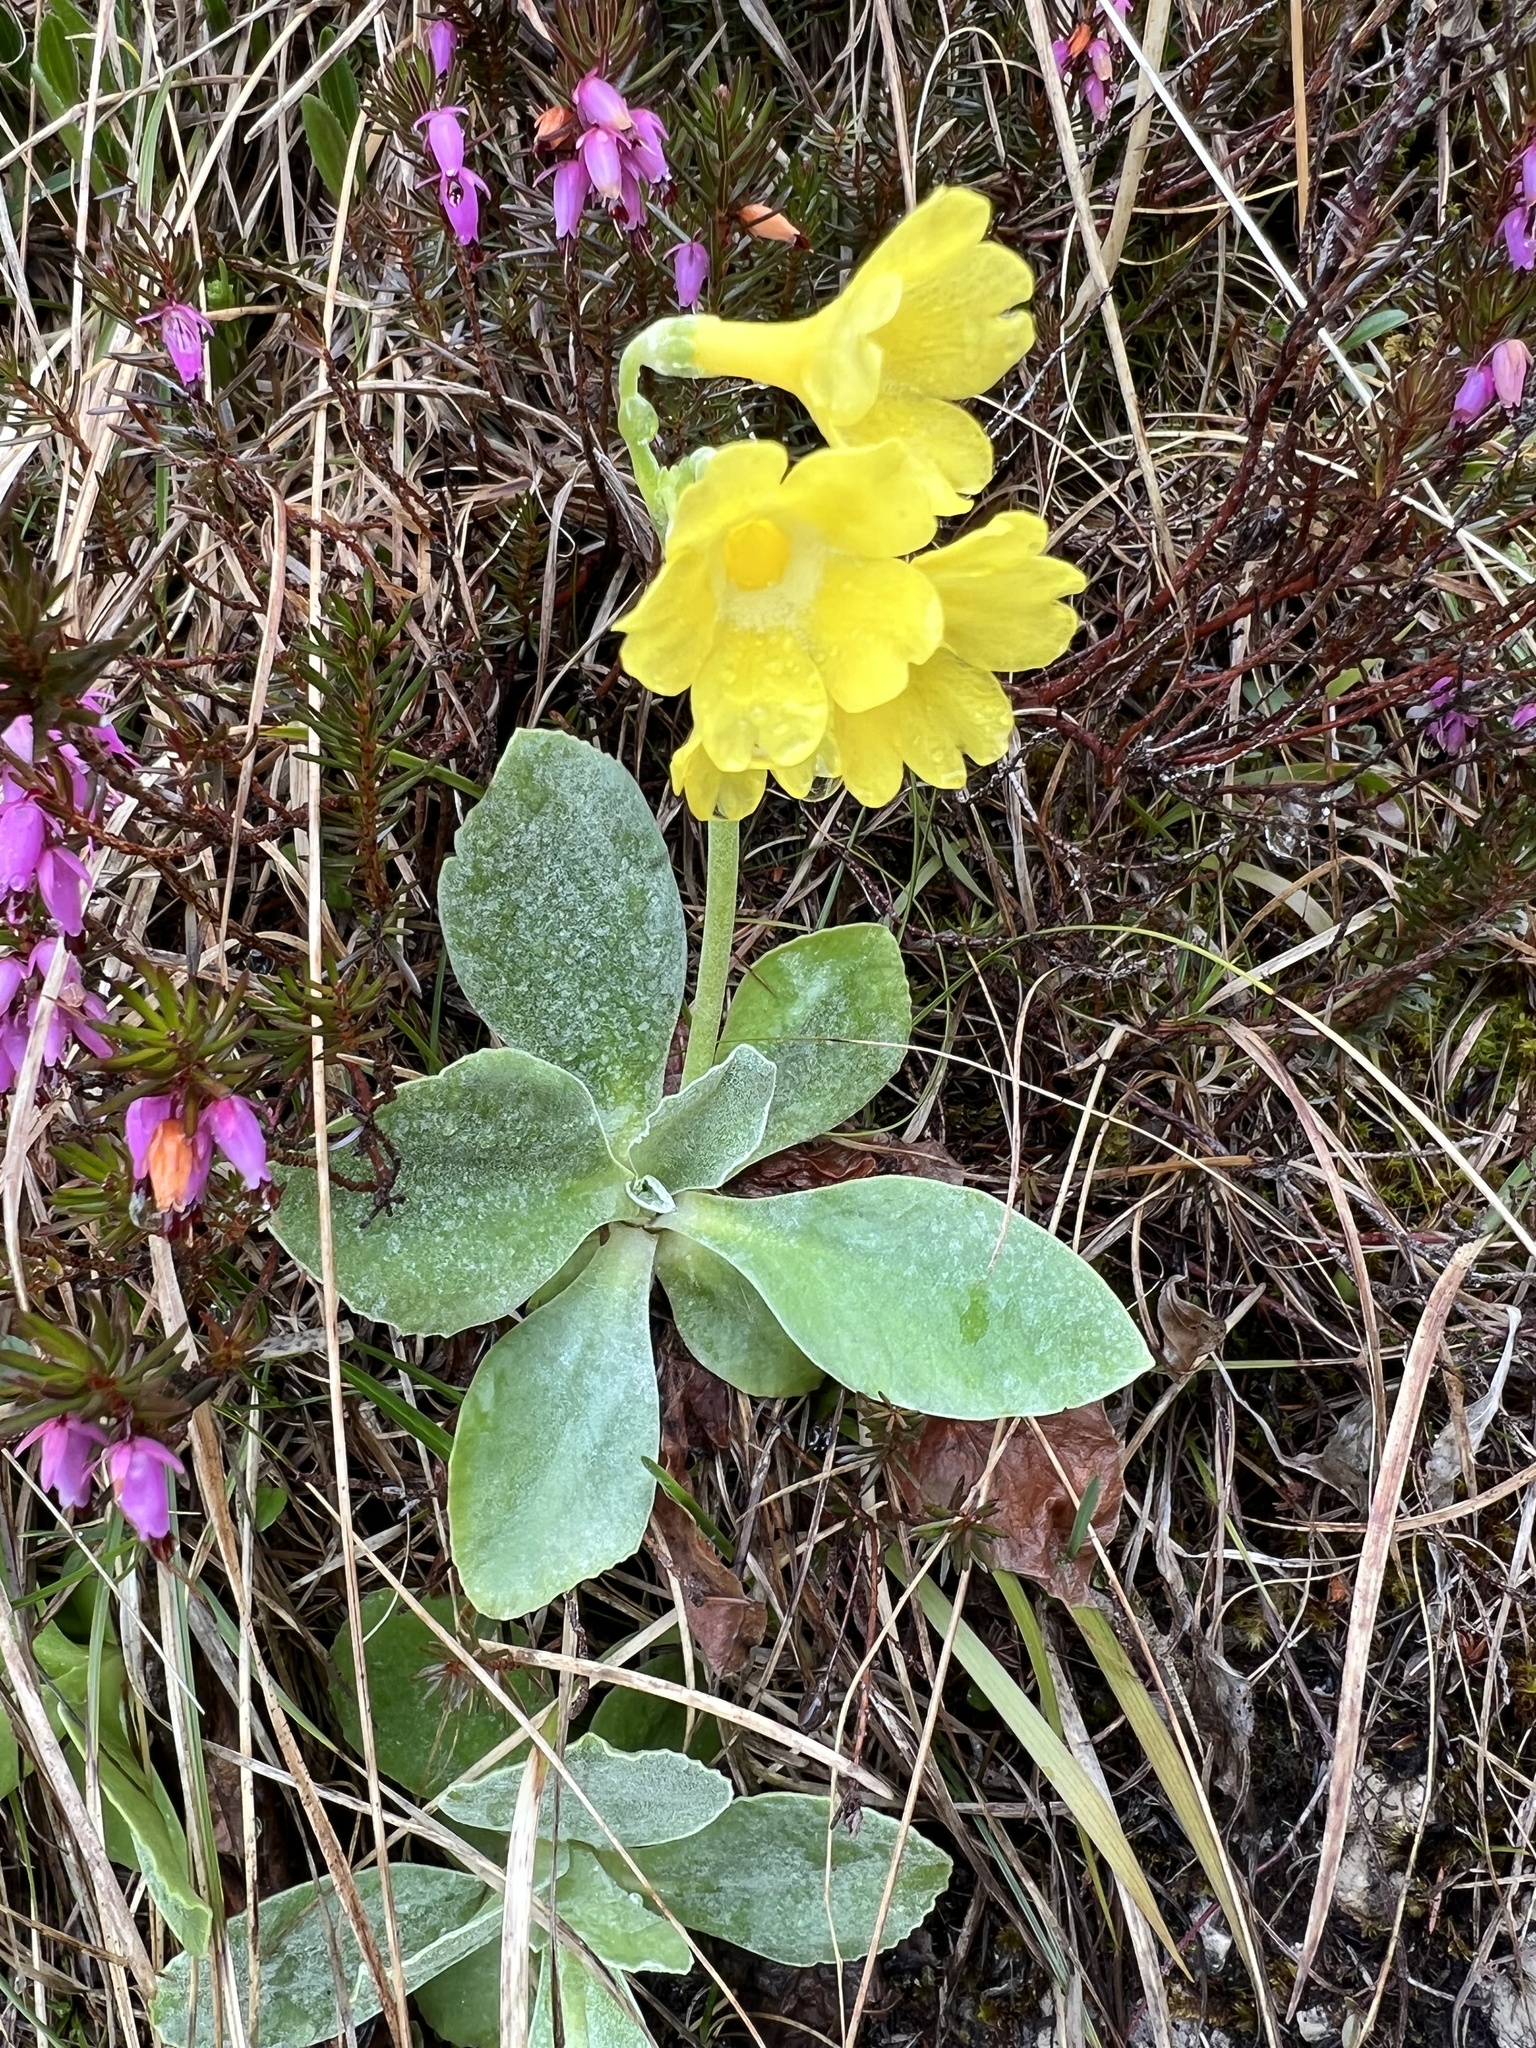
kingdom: Plantae
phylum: Tracheophyta
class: Magnoliopsida
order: Ericales
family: Primulaceae
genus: Primula
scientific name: Primula auricula
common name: Auricula
